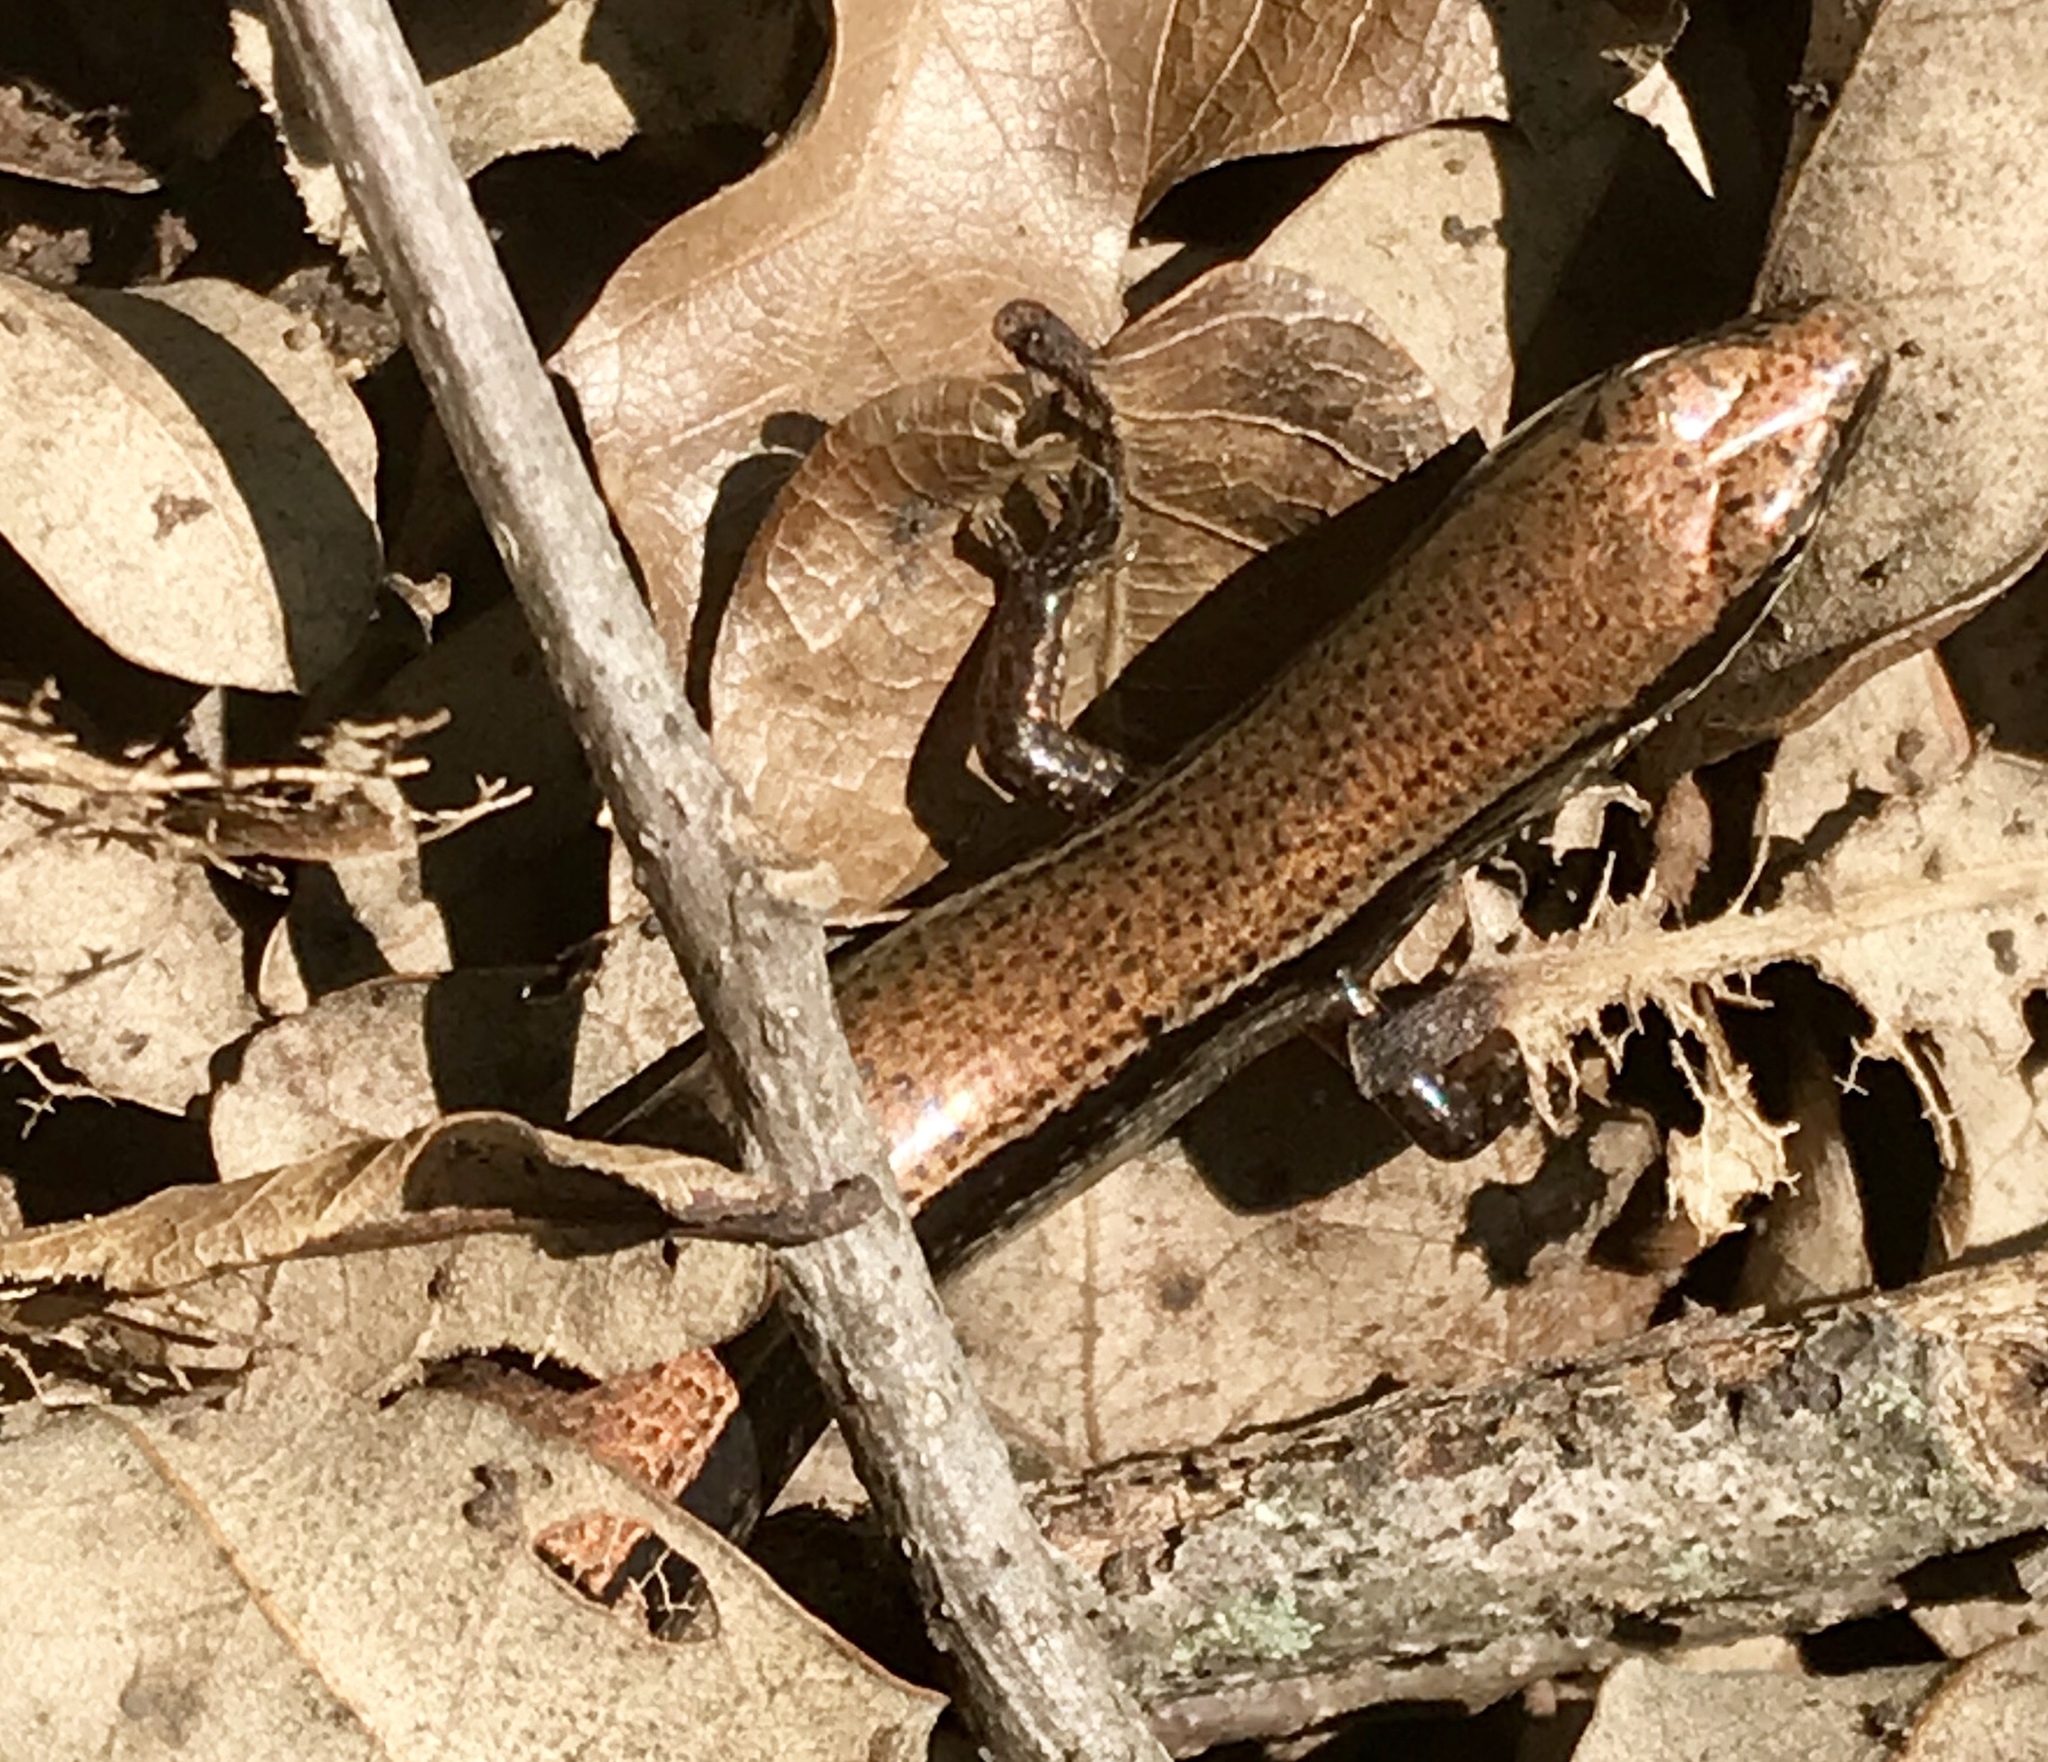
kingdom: Animalia
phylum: Chordata
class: Squamata
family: Scincidae
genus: Scincella
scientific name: Scincella silvicola
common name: Taylor’s ground skink
